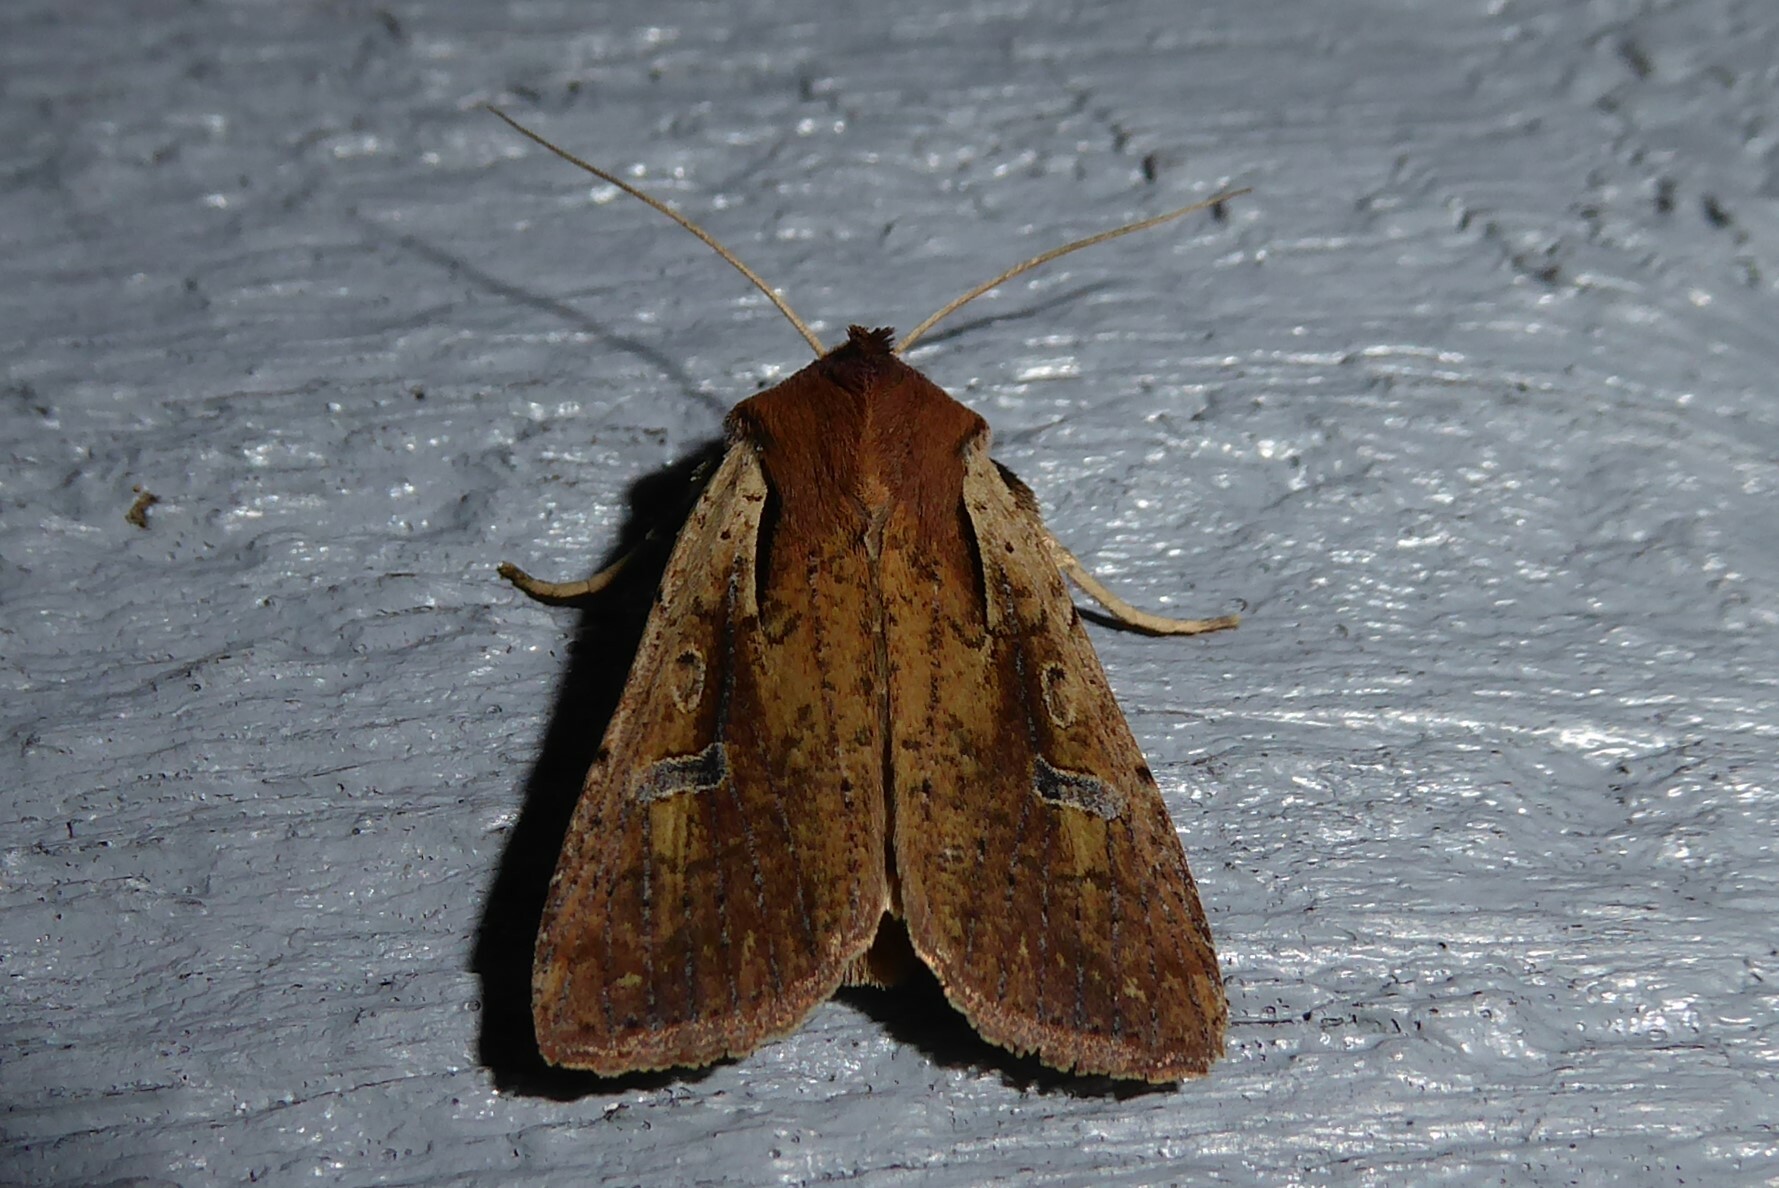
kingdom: Animalia
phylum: Arthropoda
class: Insecta
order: Lepidoptera
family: Noctuidae
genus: Ichneutica
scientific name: Ichneutica atristriga
